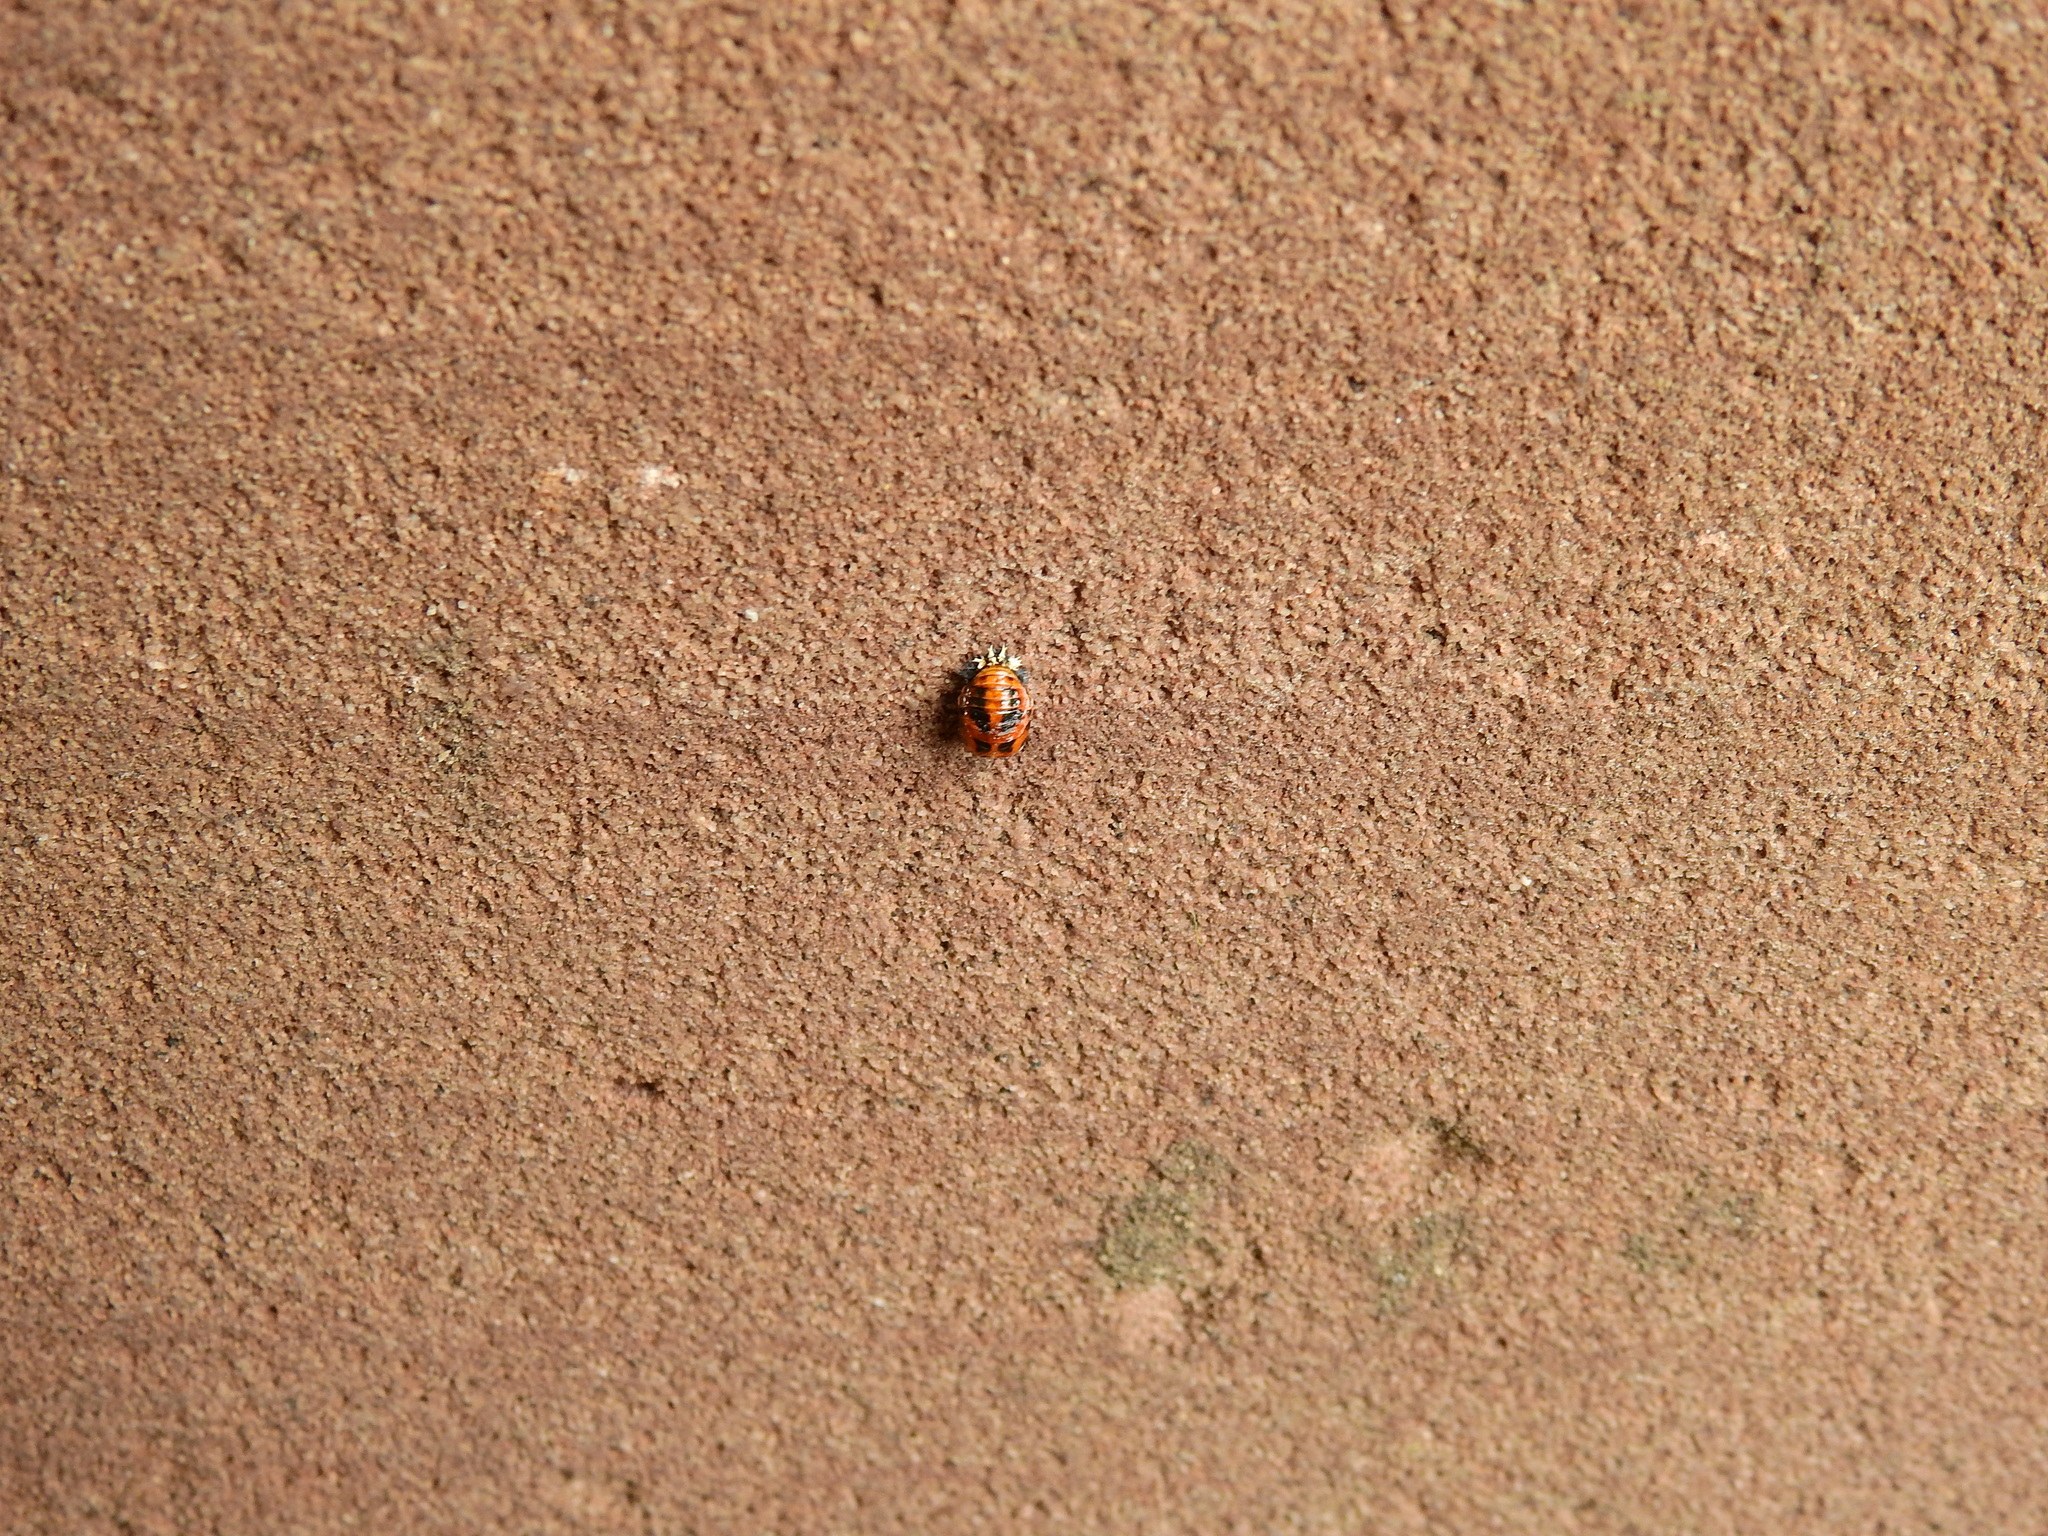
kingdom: Animalia
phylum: Arthropoda
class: Insecta
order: Coleoptera
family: Coccinellidae
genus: Harmonia
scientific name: Harmonia axyridis
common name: Harlequin ladybird
